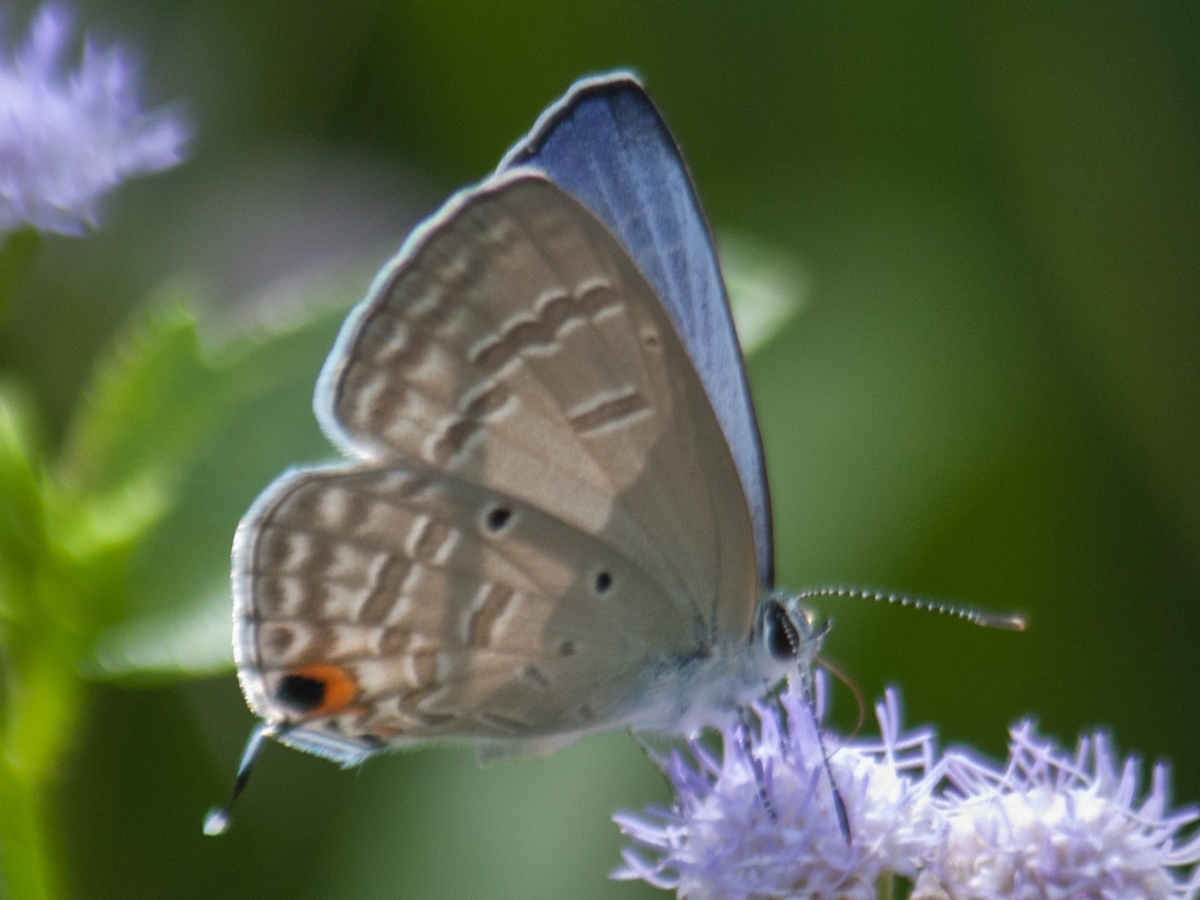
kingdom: Animalia
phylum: Arthropoda
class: Insecta
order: Lepidoptera
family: Lycaenidae
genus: Catochrysops
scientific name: Catochrysops strabo
